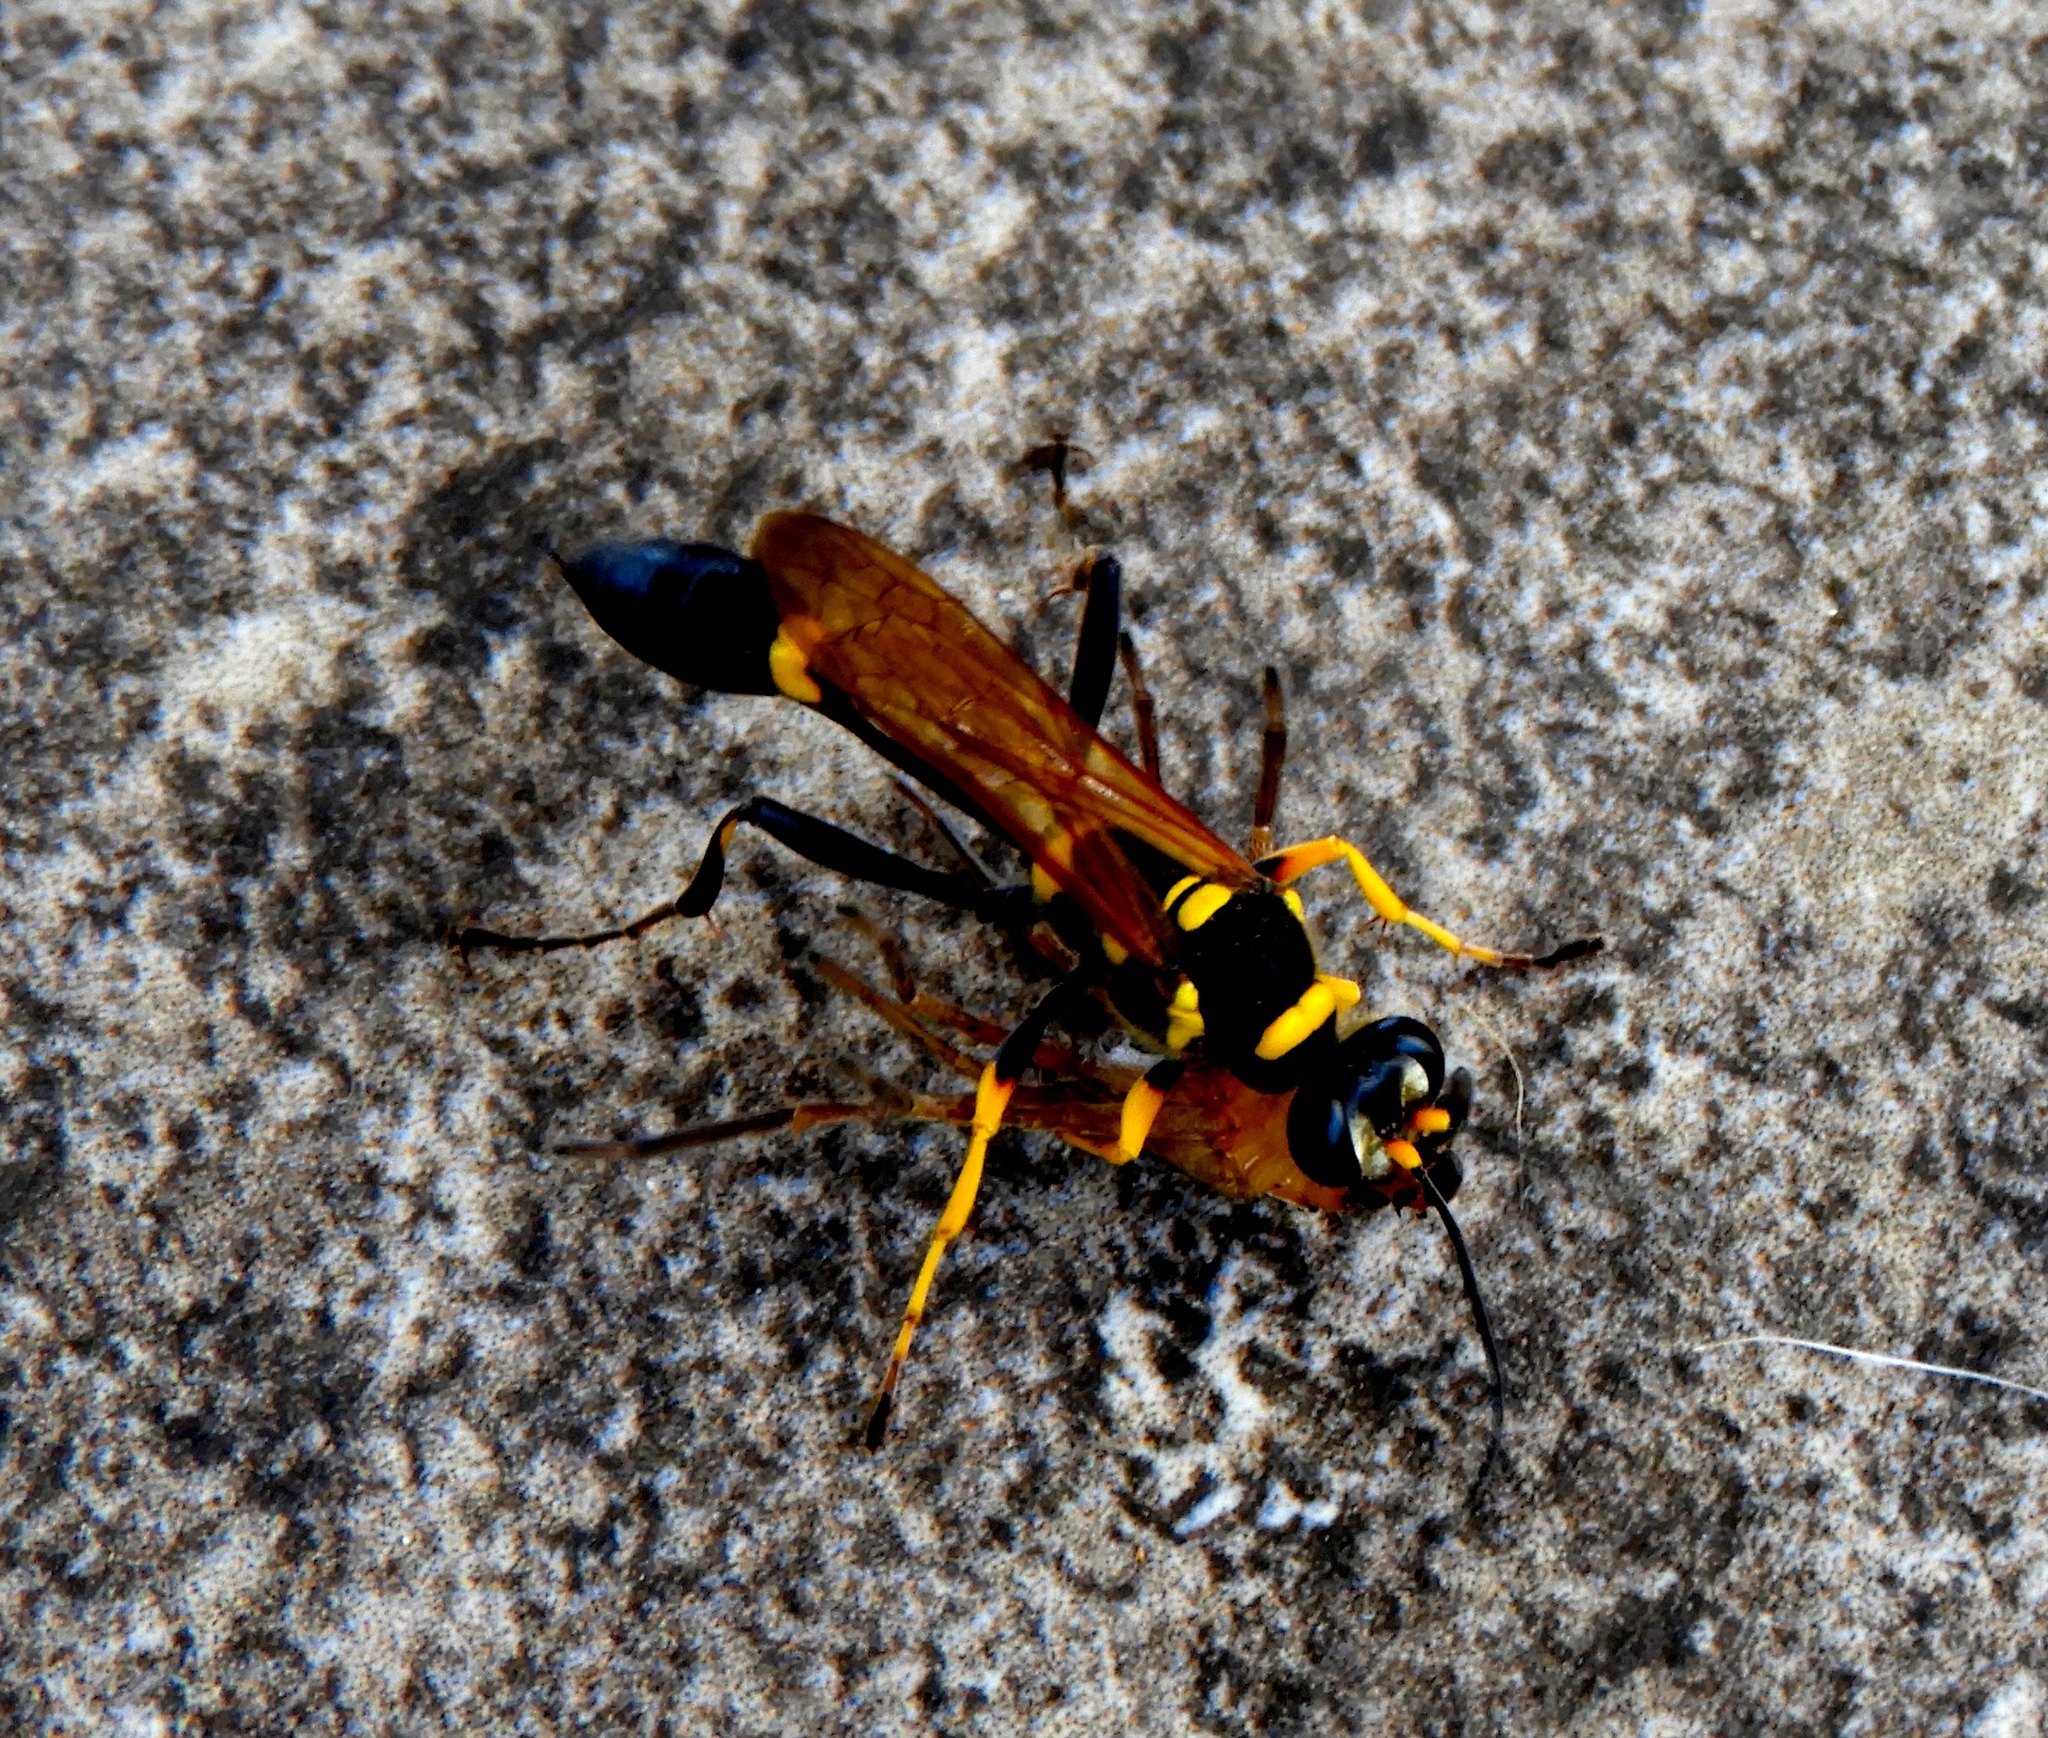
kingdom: Animalia
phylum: Arthropoda
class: Insecta
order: Hymenoptera
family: Sphecidae
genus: Sceliphron
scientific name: Sceliphron assimile
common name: Clayman's mud dauber
